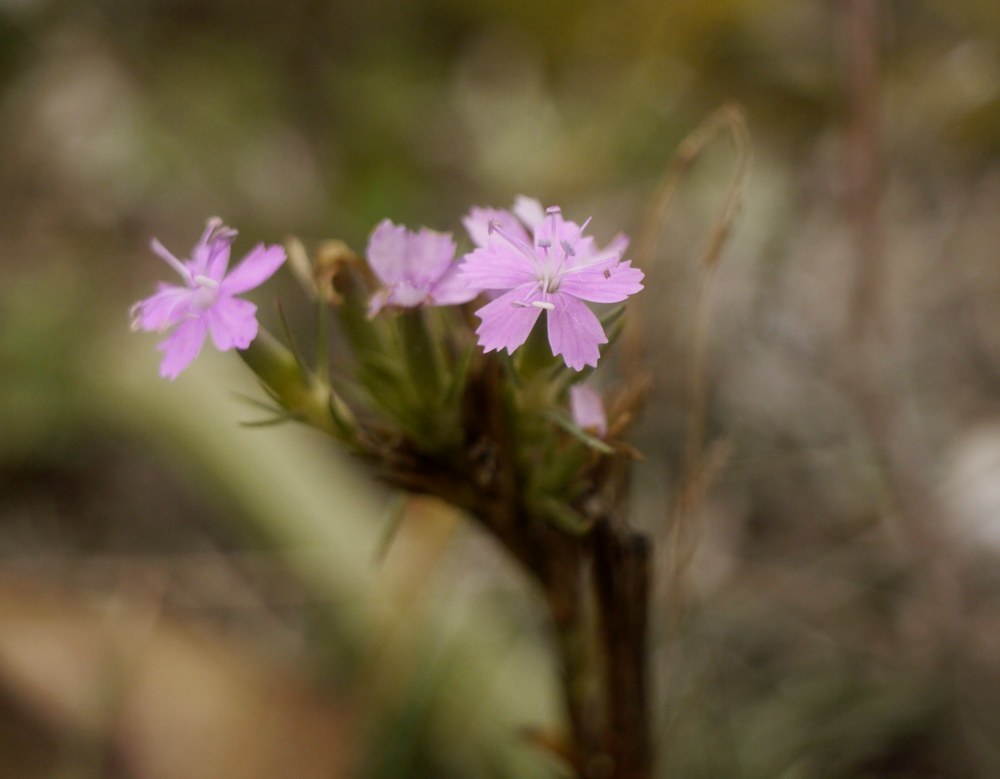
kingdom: Plantae
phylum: Tracheophyta
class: Magnoliopsida
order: Caryophyllales
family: Caryophyllaceae
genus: Dianthus
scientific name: Dianthus pseudarmeria
